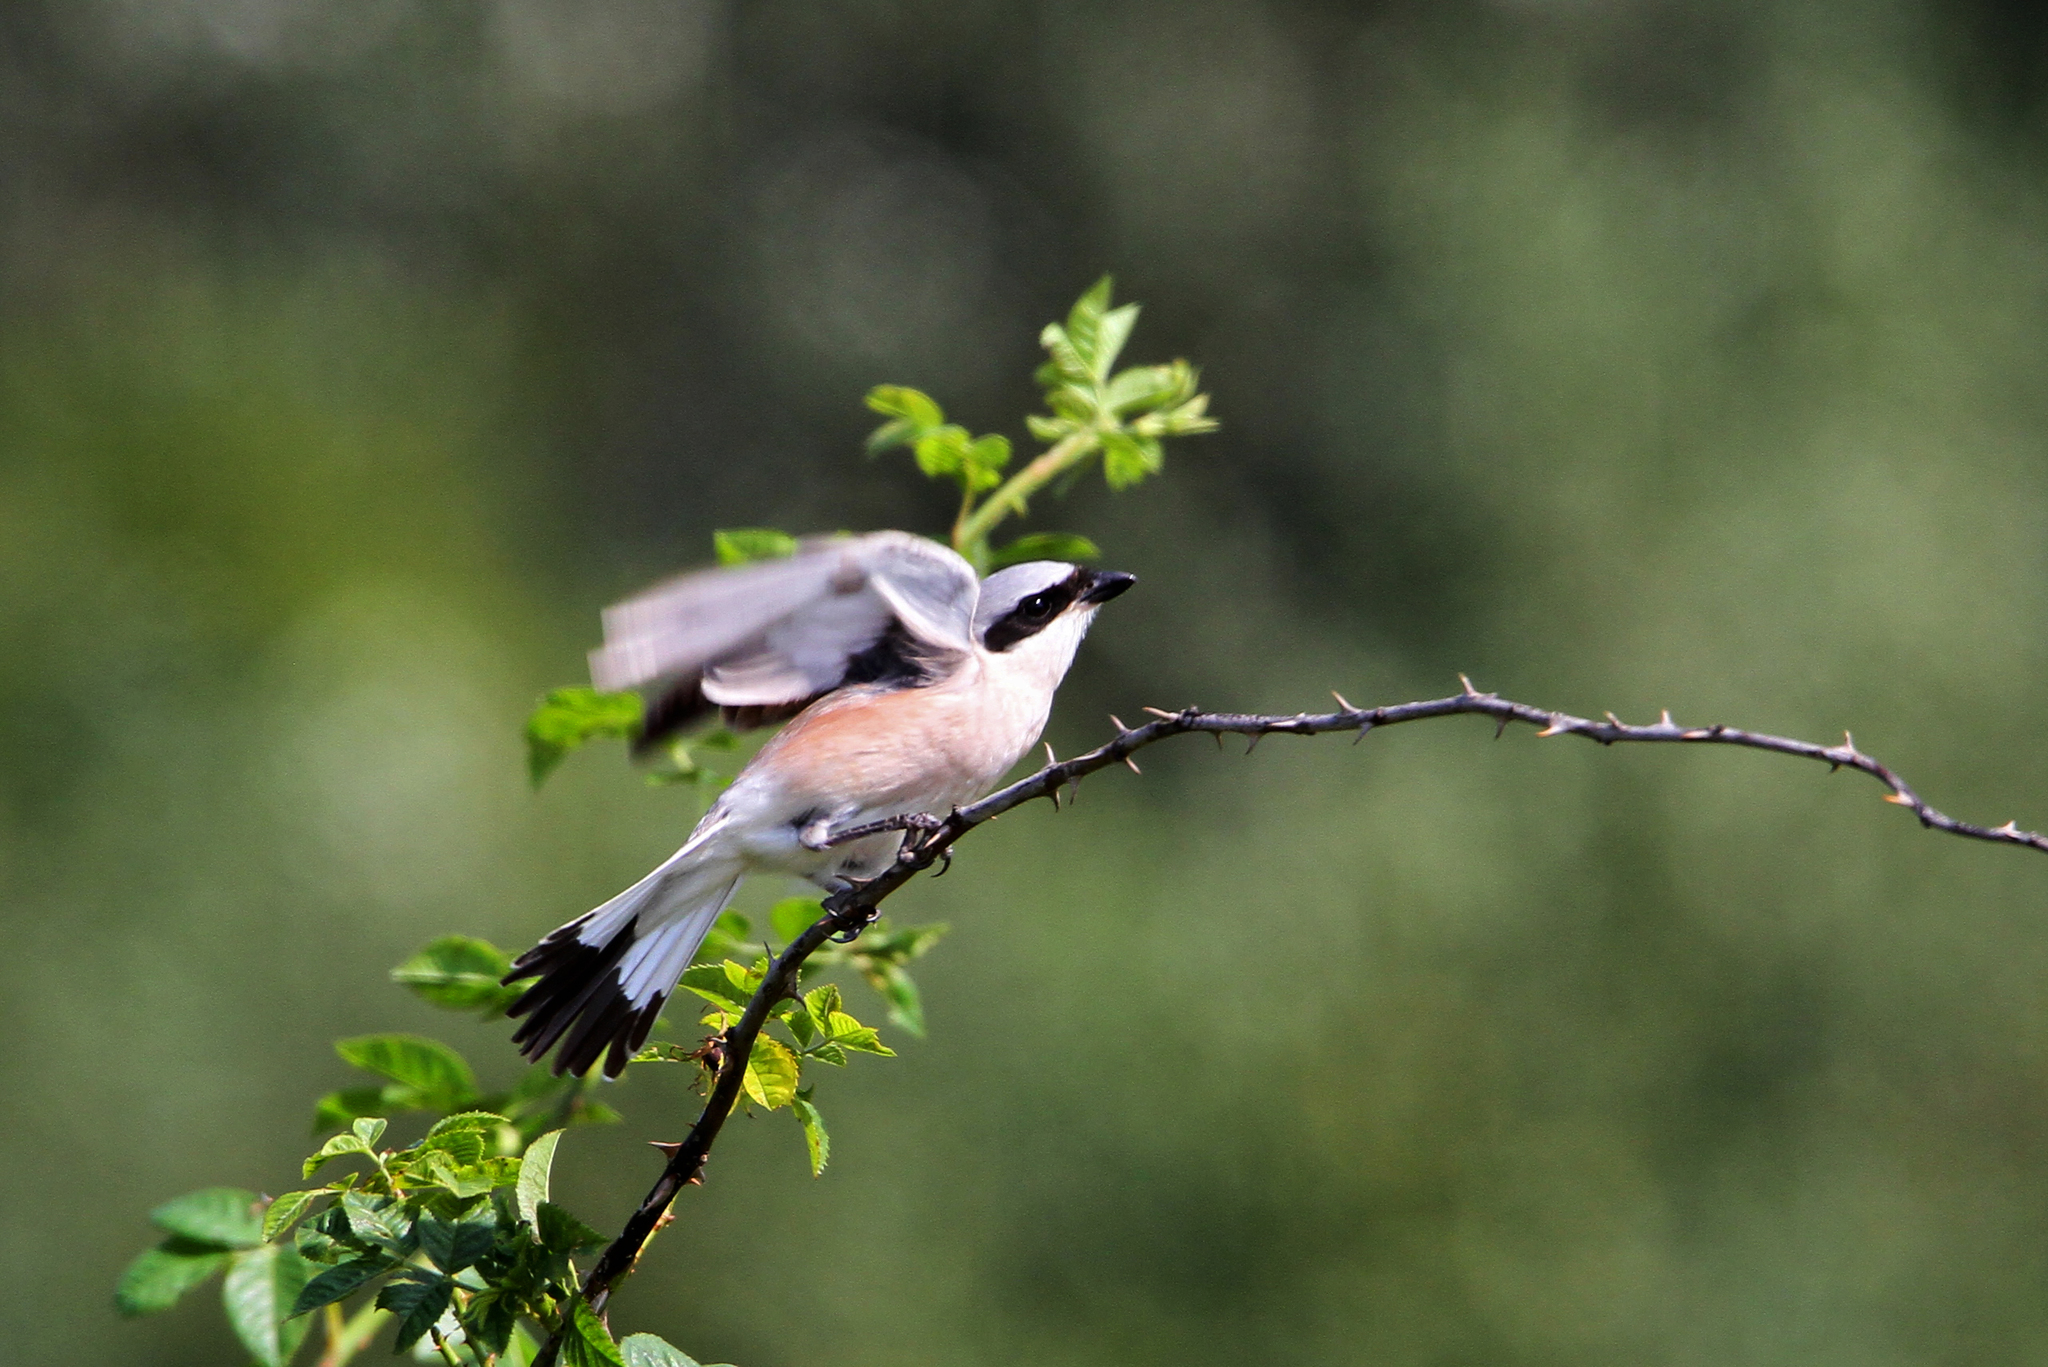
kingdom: Animalia
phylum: Chordata
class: Aves
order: Passeriformes
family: Laniidae
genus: Lanius
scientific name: Lanius collurio
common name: Red-backed shrike
